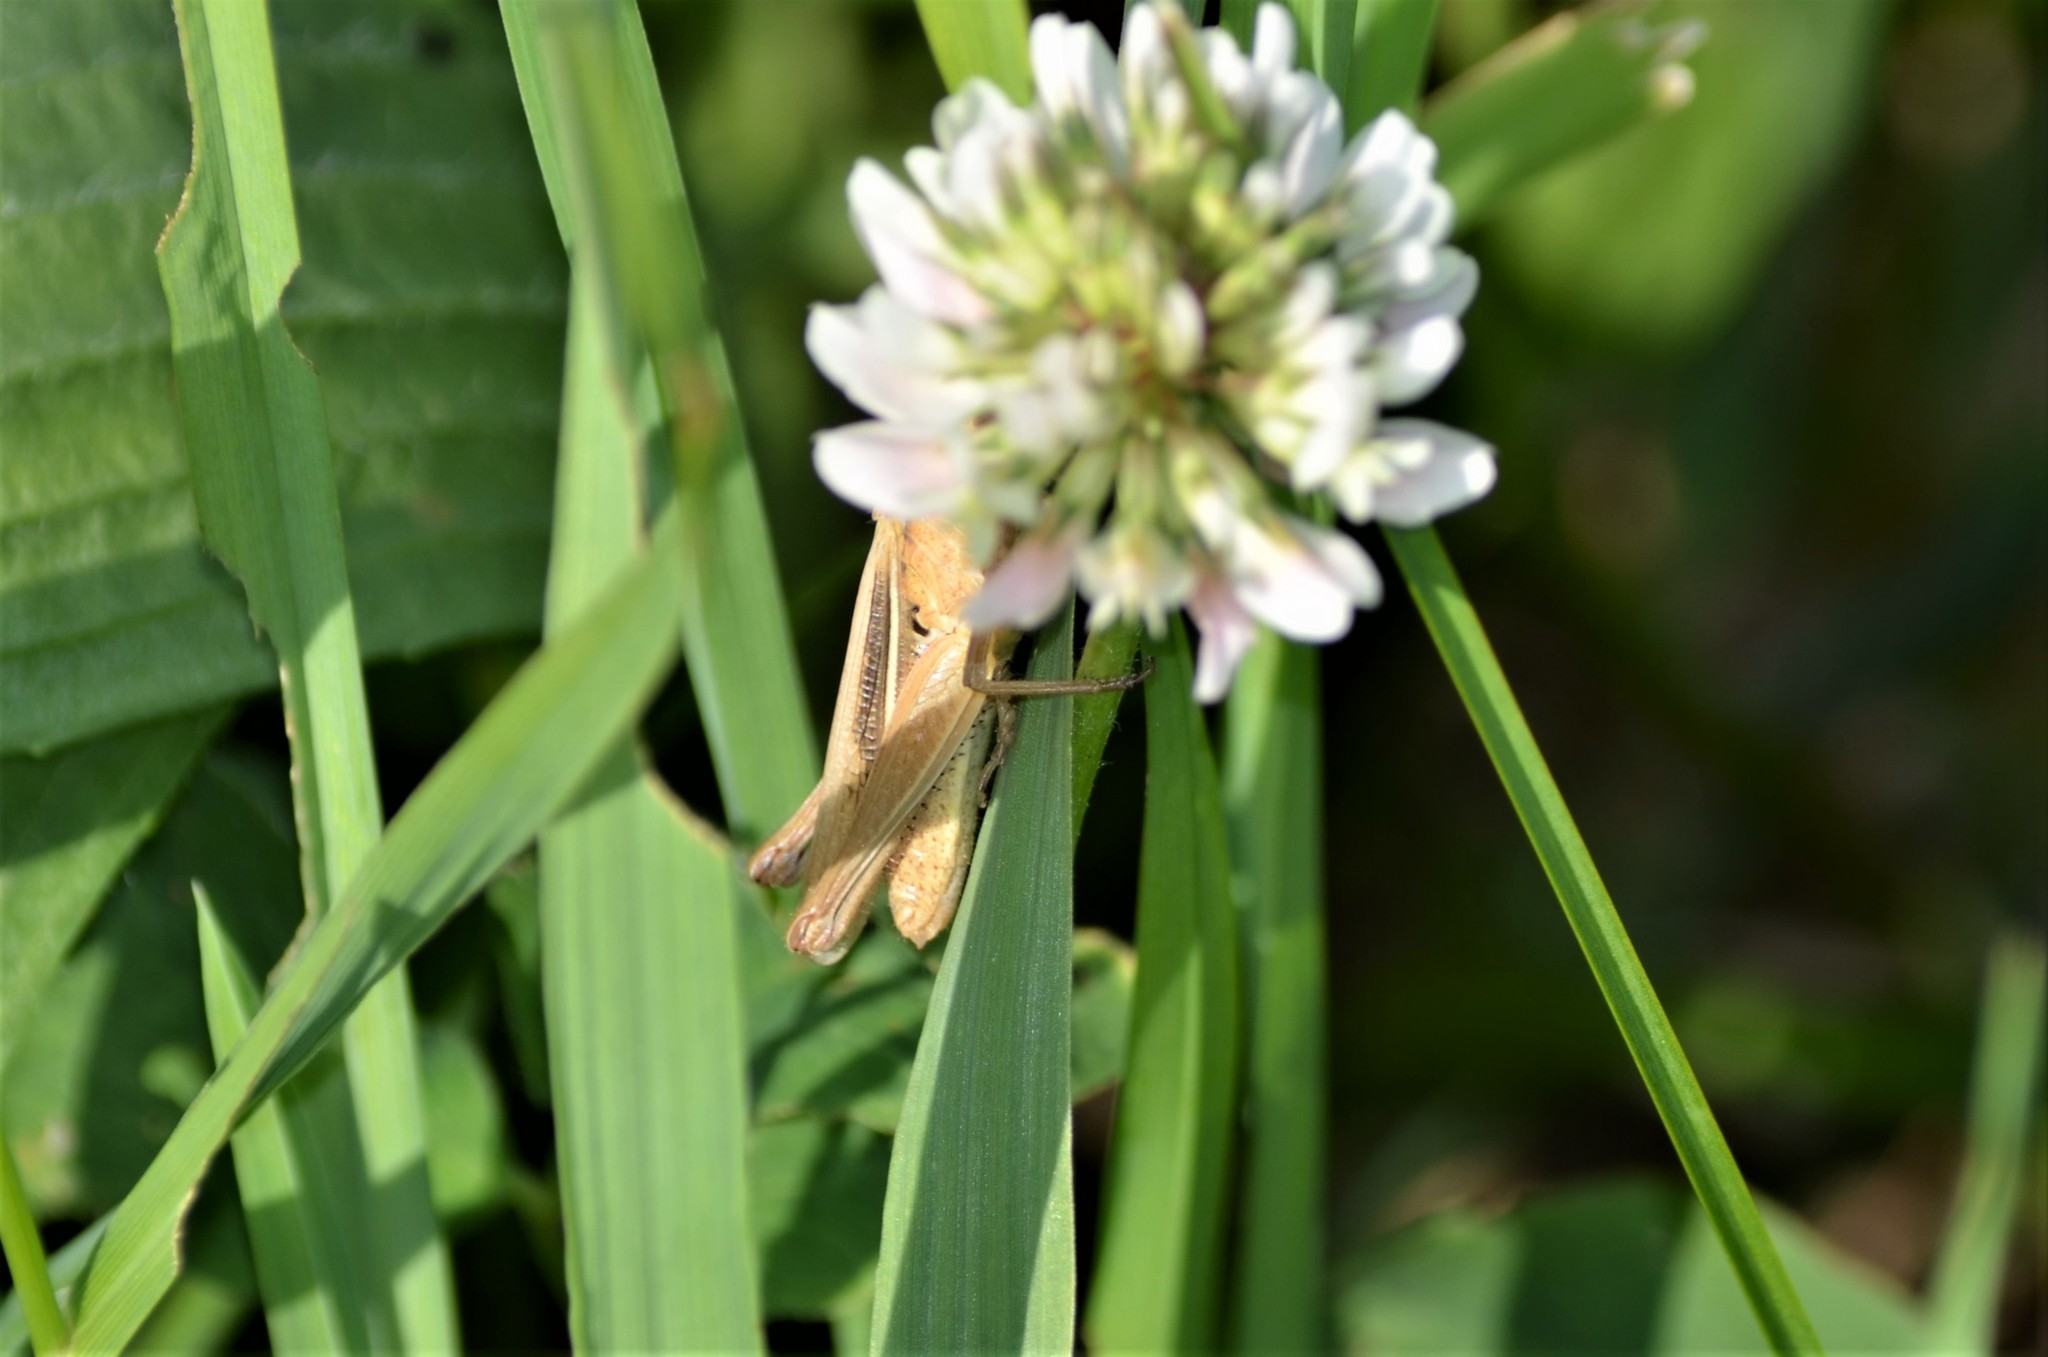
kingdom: Animalia
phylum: Arthropoda
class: Insecta
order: Orthoptera
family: Acrididae
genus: Chorthippus
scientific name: Chorthippus albomarginatus
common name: Lesser marsh grasshopper
